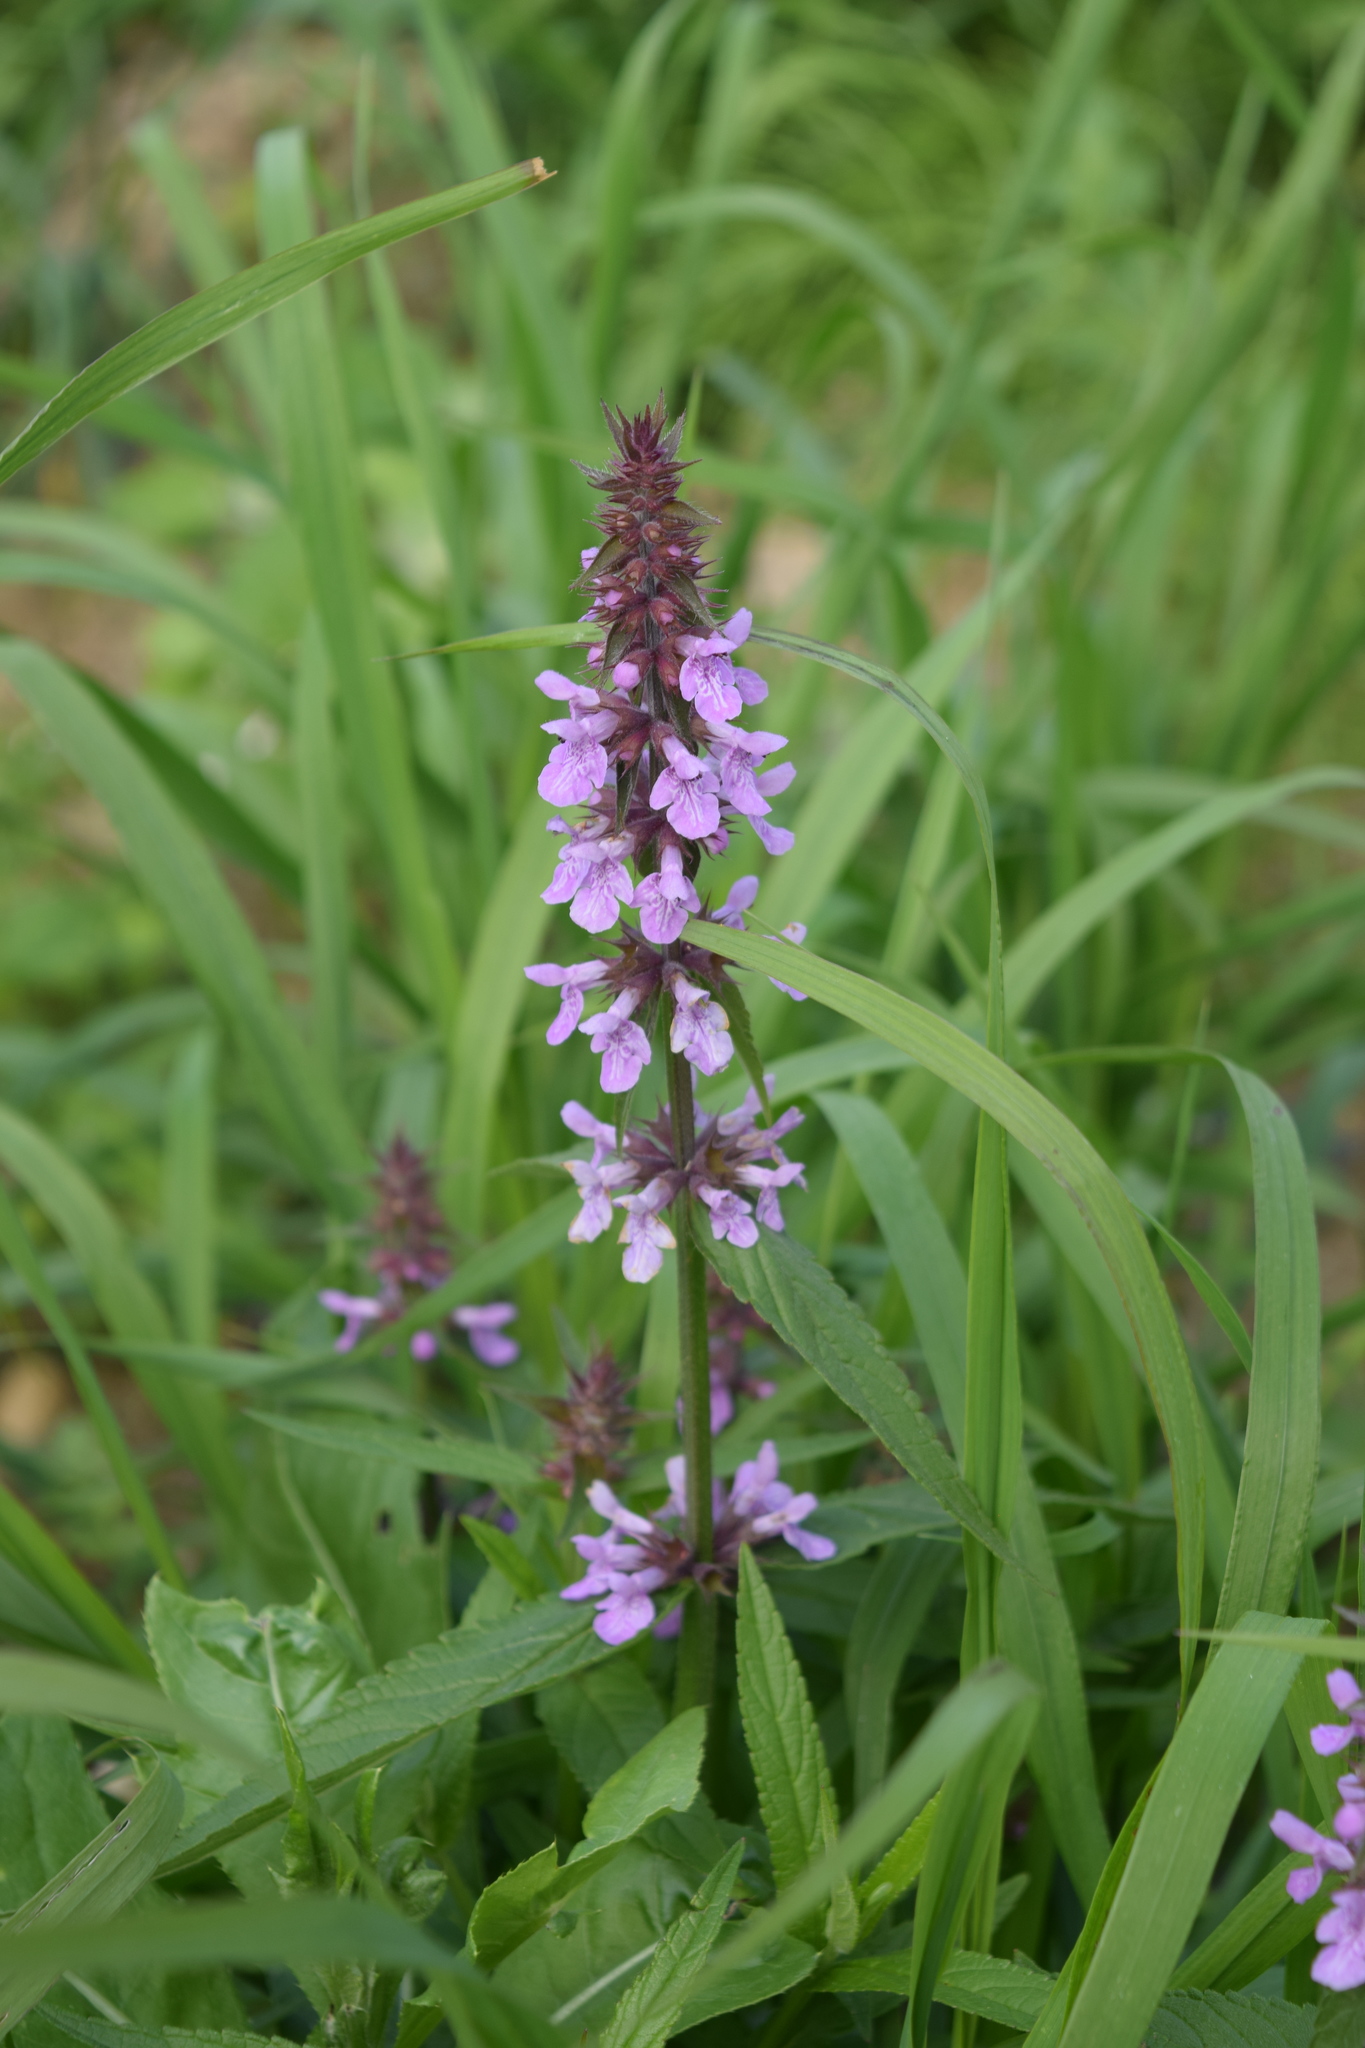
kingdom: Plantae
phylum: Tracheophyta
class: Magnoliopsida
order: Lamiales
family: Lamiaceae
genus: Stachys
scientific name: Stachys palustris
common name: Marsh woundwort
